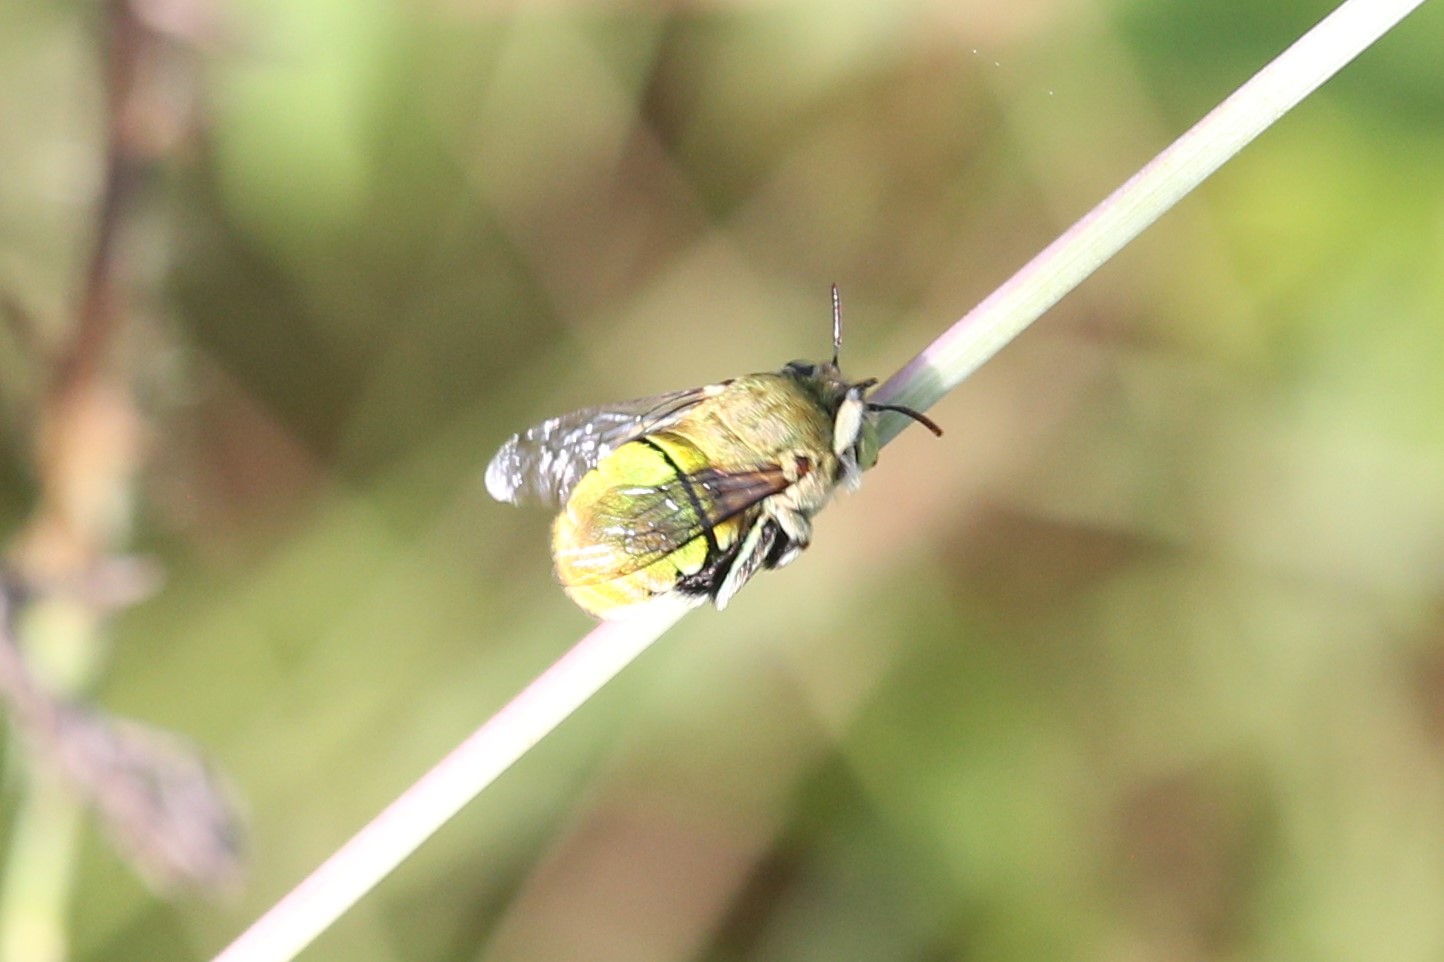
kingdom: Animalia
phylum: Arthropoda
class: Insecta
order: Hymenoptera
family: Apidae
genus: Amegilla
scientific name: Amegilla aeruginosa
